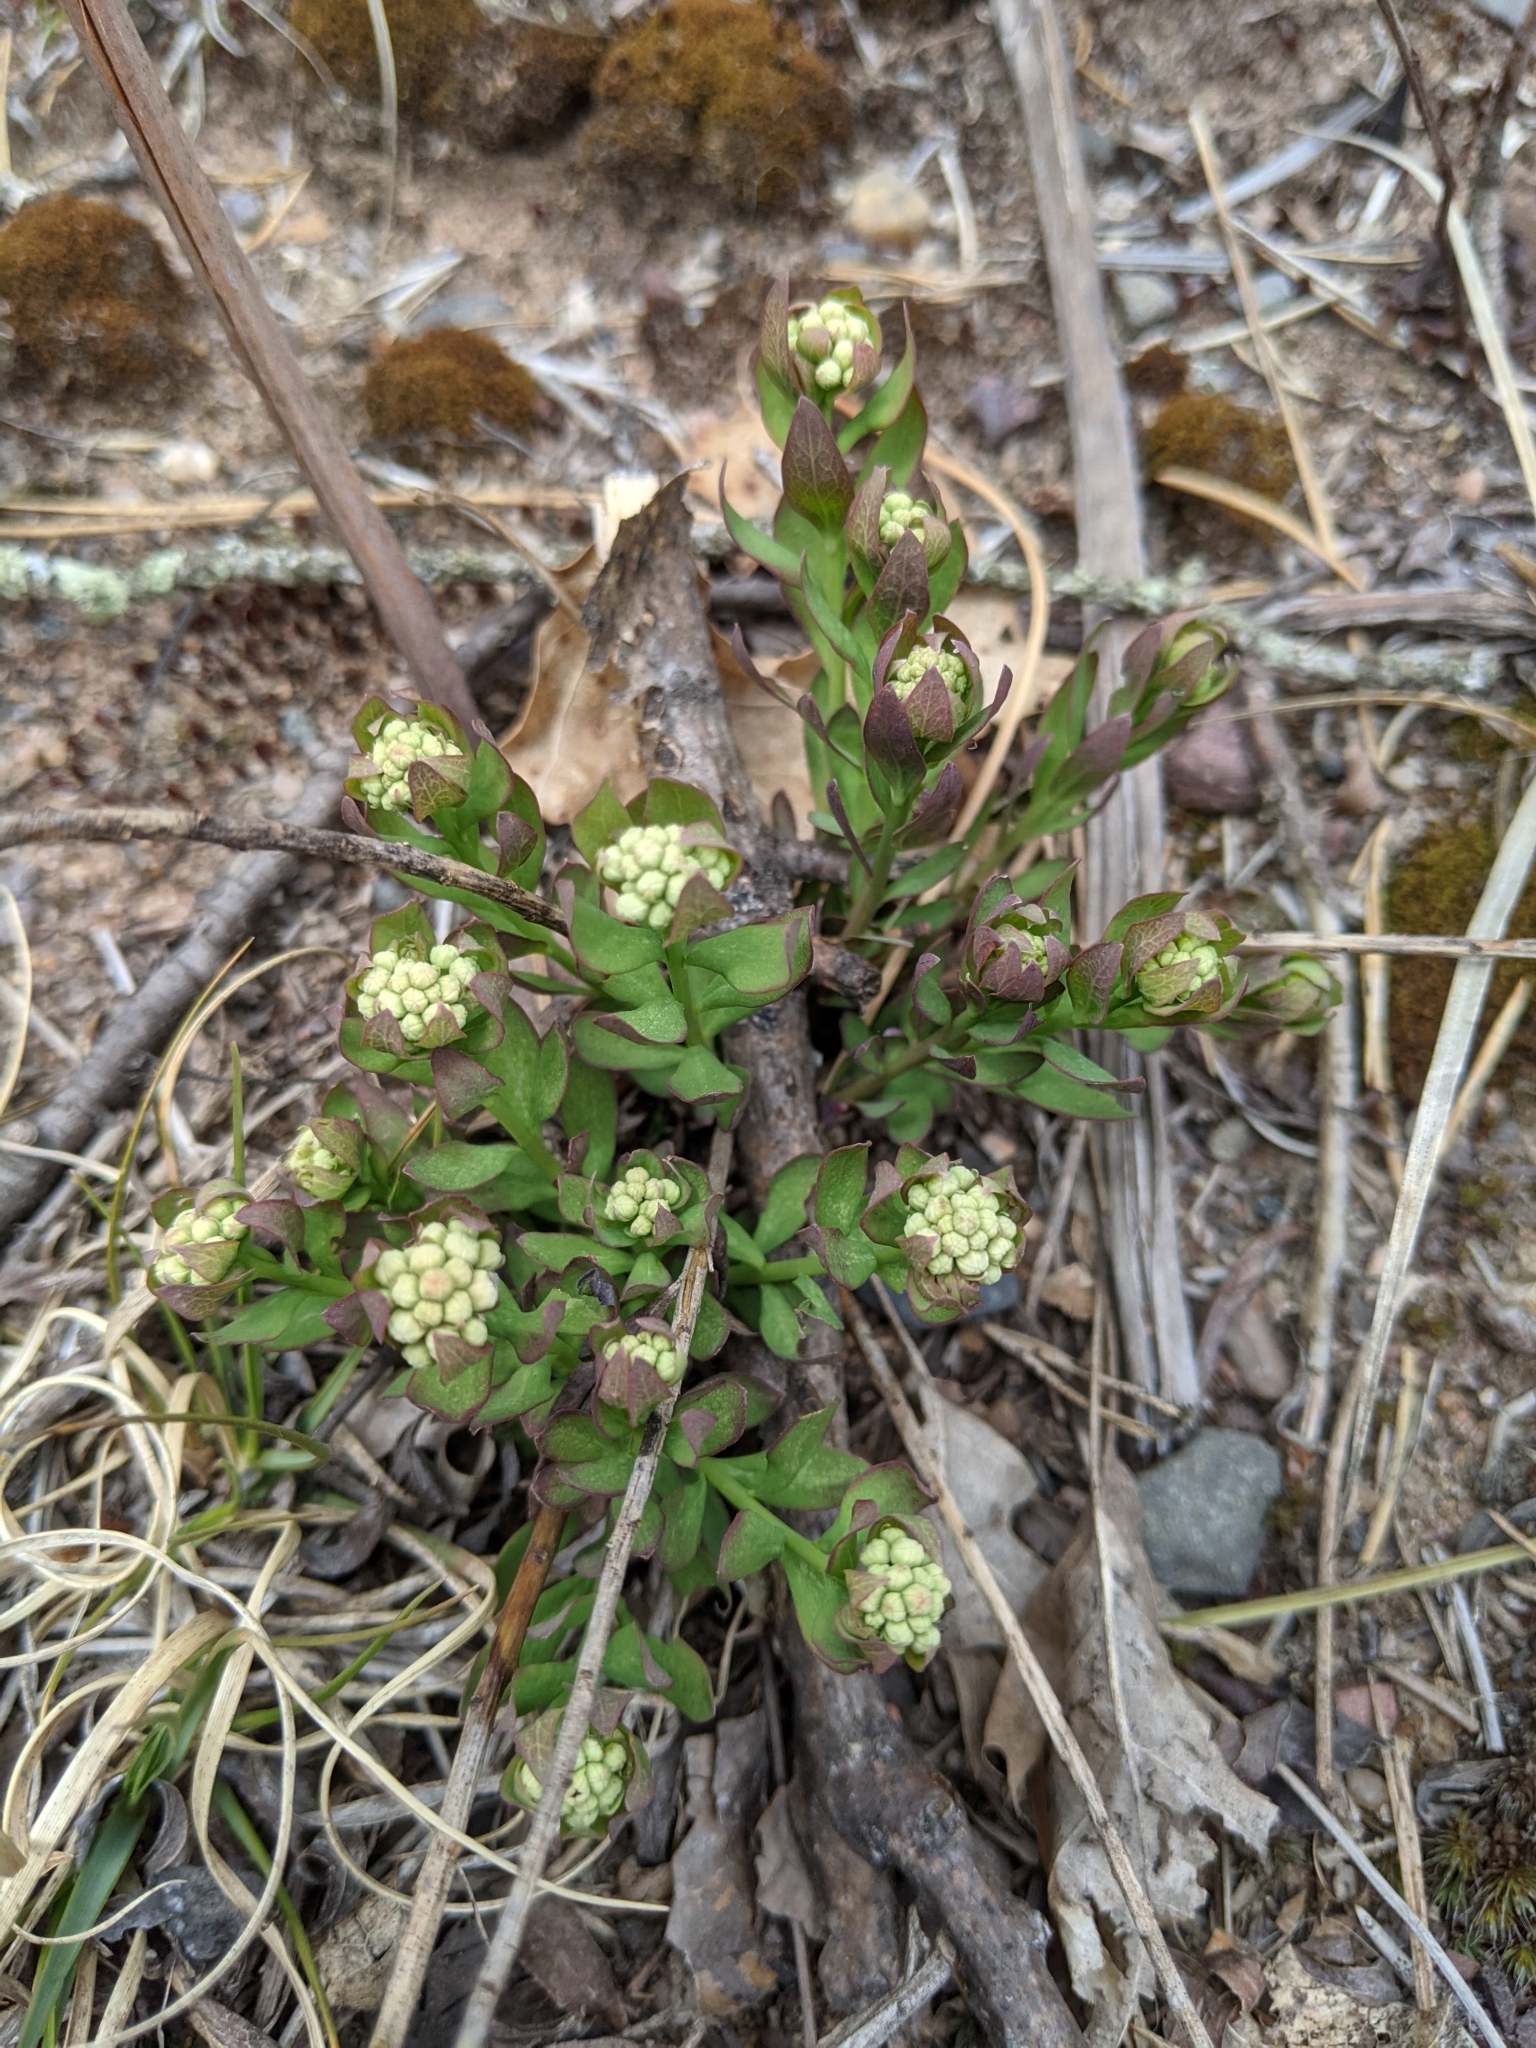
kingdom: Plantae
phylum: Tracheophyta
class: Magnoliopsida
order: Santalales
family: Comandraceae
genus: Comandra
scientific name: Comandra umbellata
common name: Bastard toadflax
